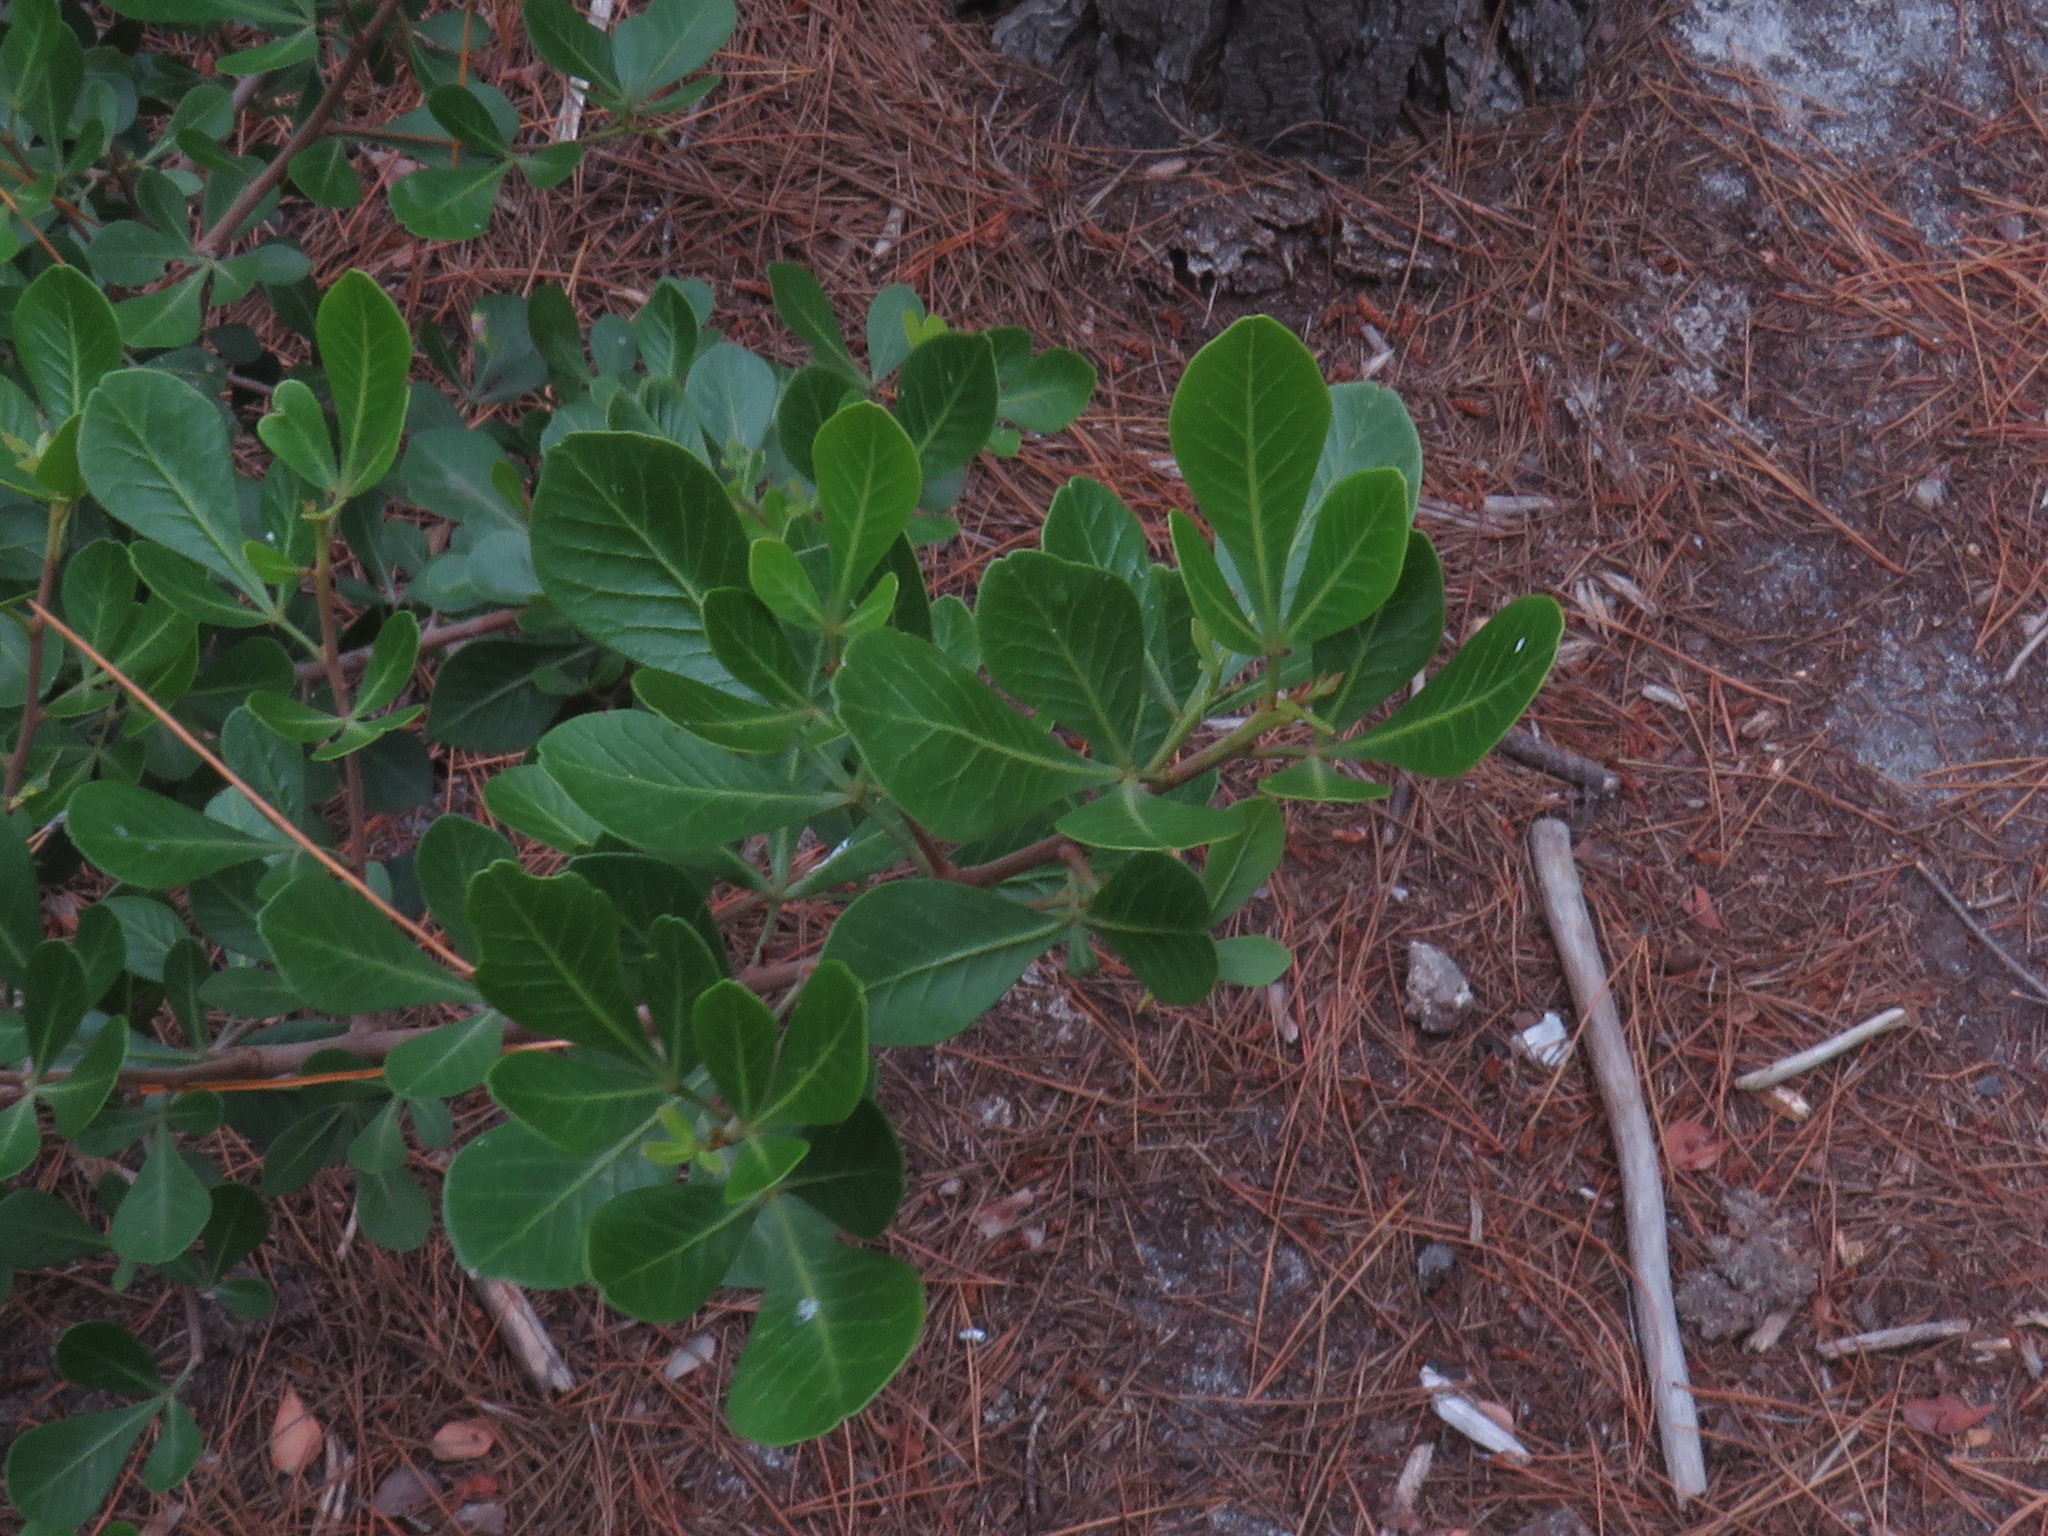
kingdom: Plantae
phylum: Tracheophyta
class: Magnoliopsida
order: Sapindales
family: Anacardiaceae
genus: Searsia
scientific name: Searsia lucida
